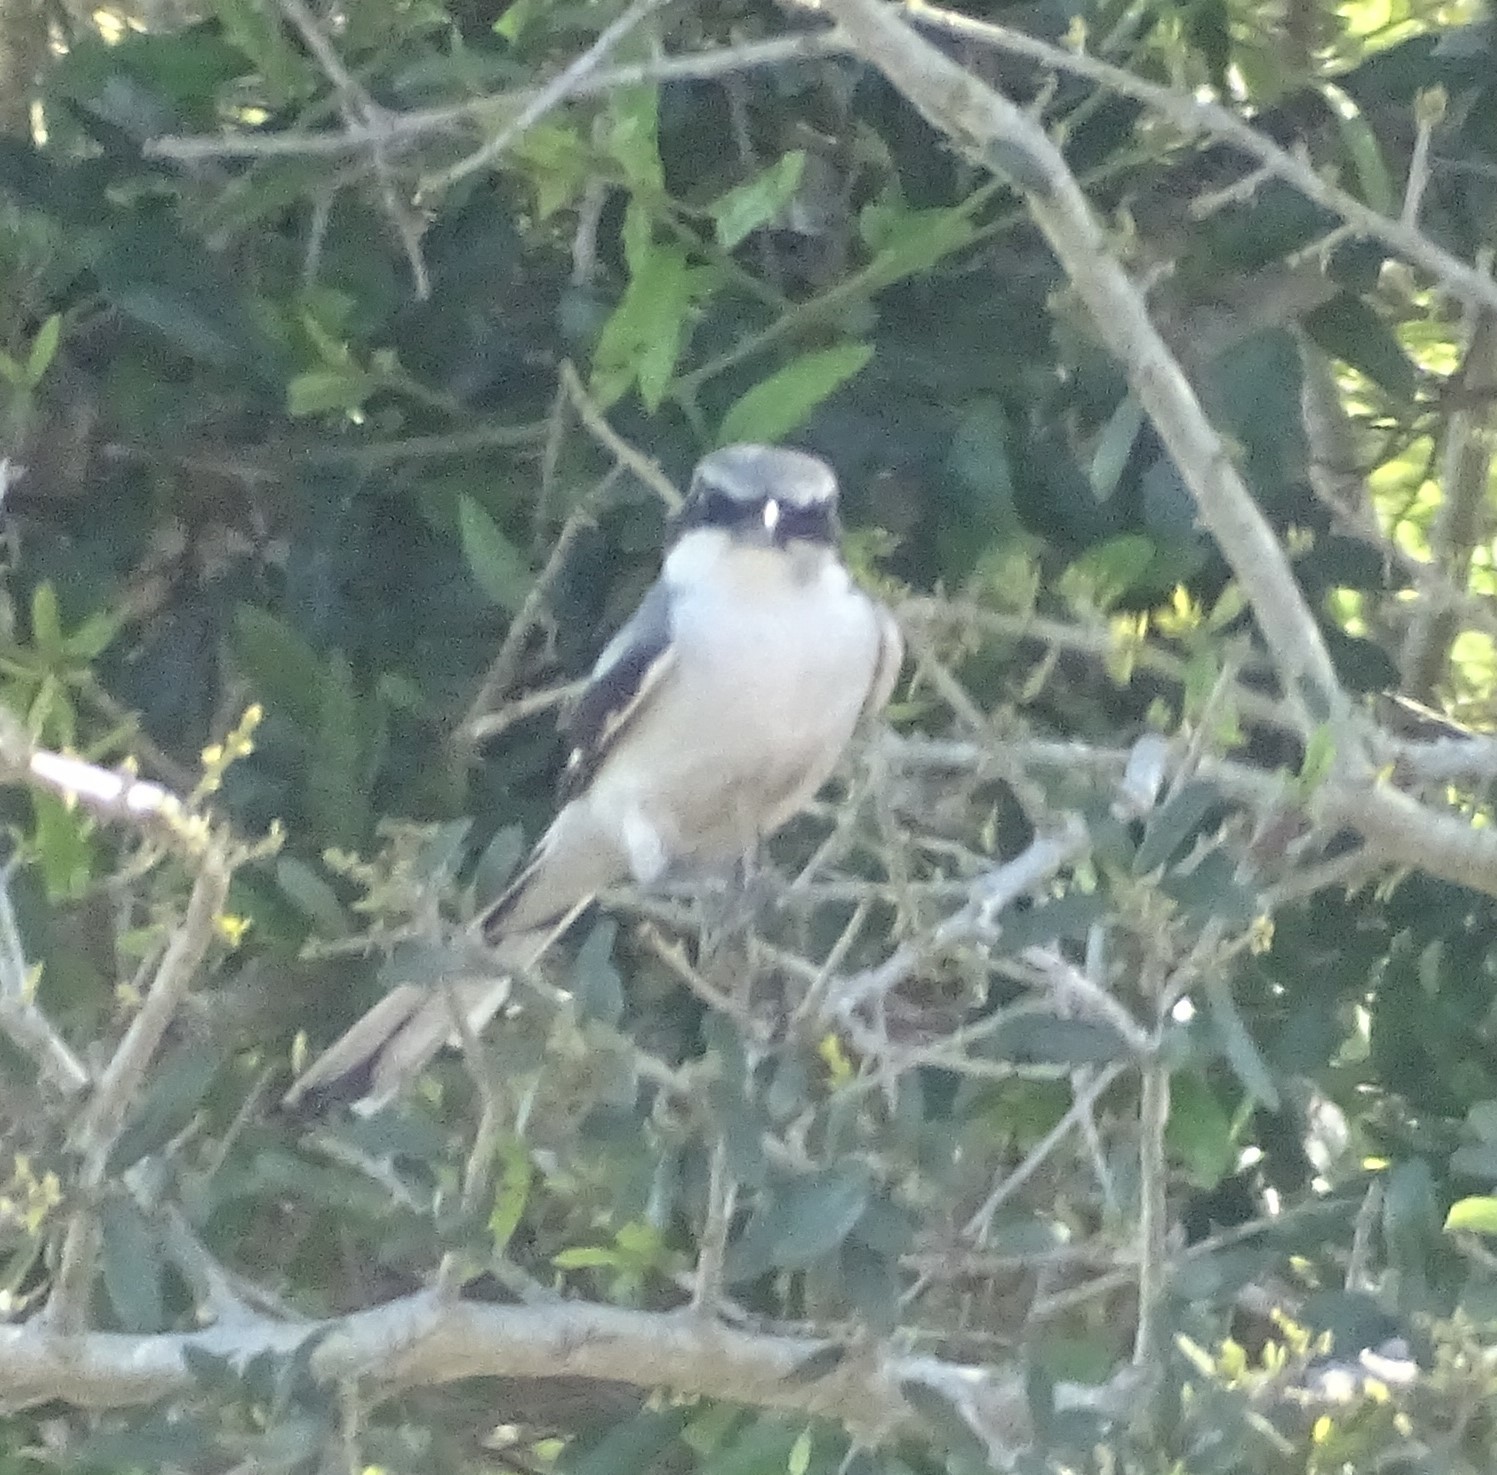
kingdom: Animalia
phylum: Chordata
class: Aves
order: Passeriformes
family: Laniidae
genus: Lanius
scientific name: Lanius ludovicianus
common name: Loggerhead shrike
